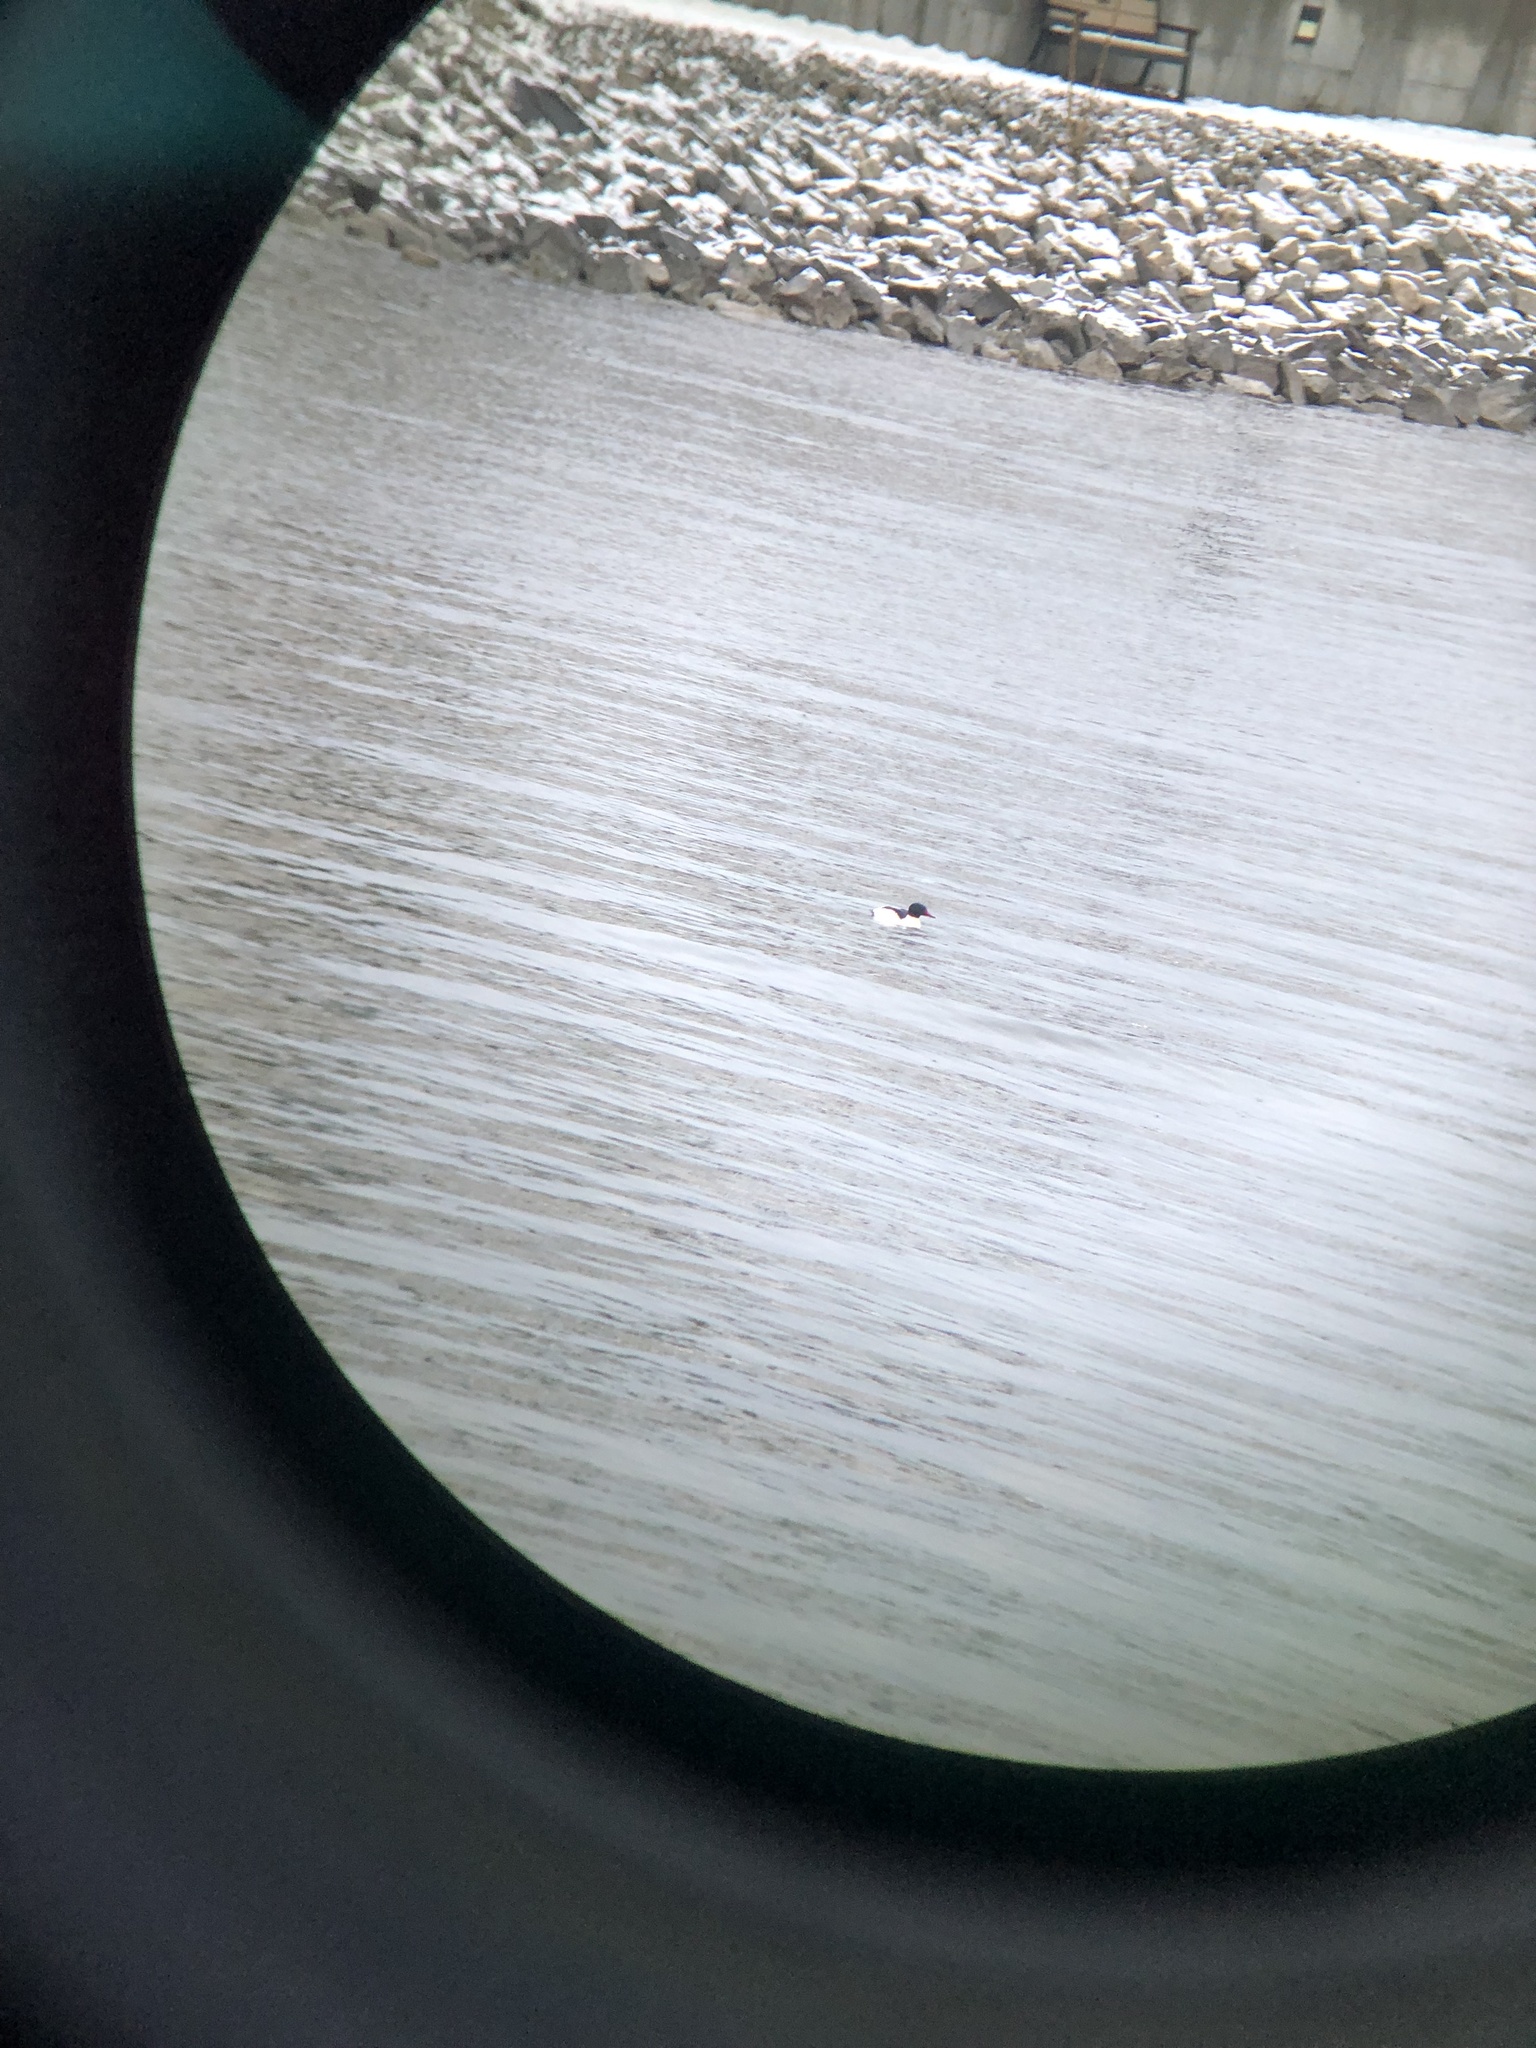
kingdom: Animalia
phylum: Chordata
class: Aves
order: Anseriformes
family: Anatidae
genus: Mergus
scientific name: Mergus merganser
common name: Common merganser
